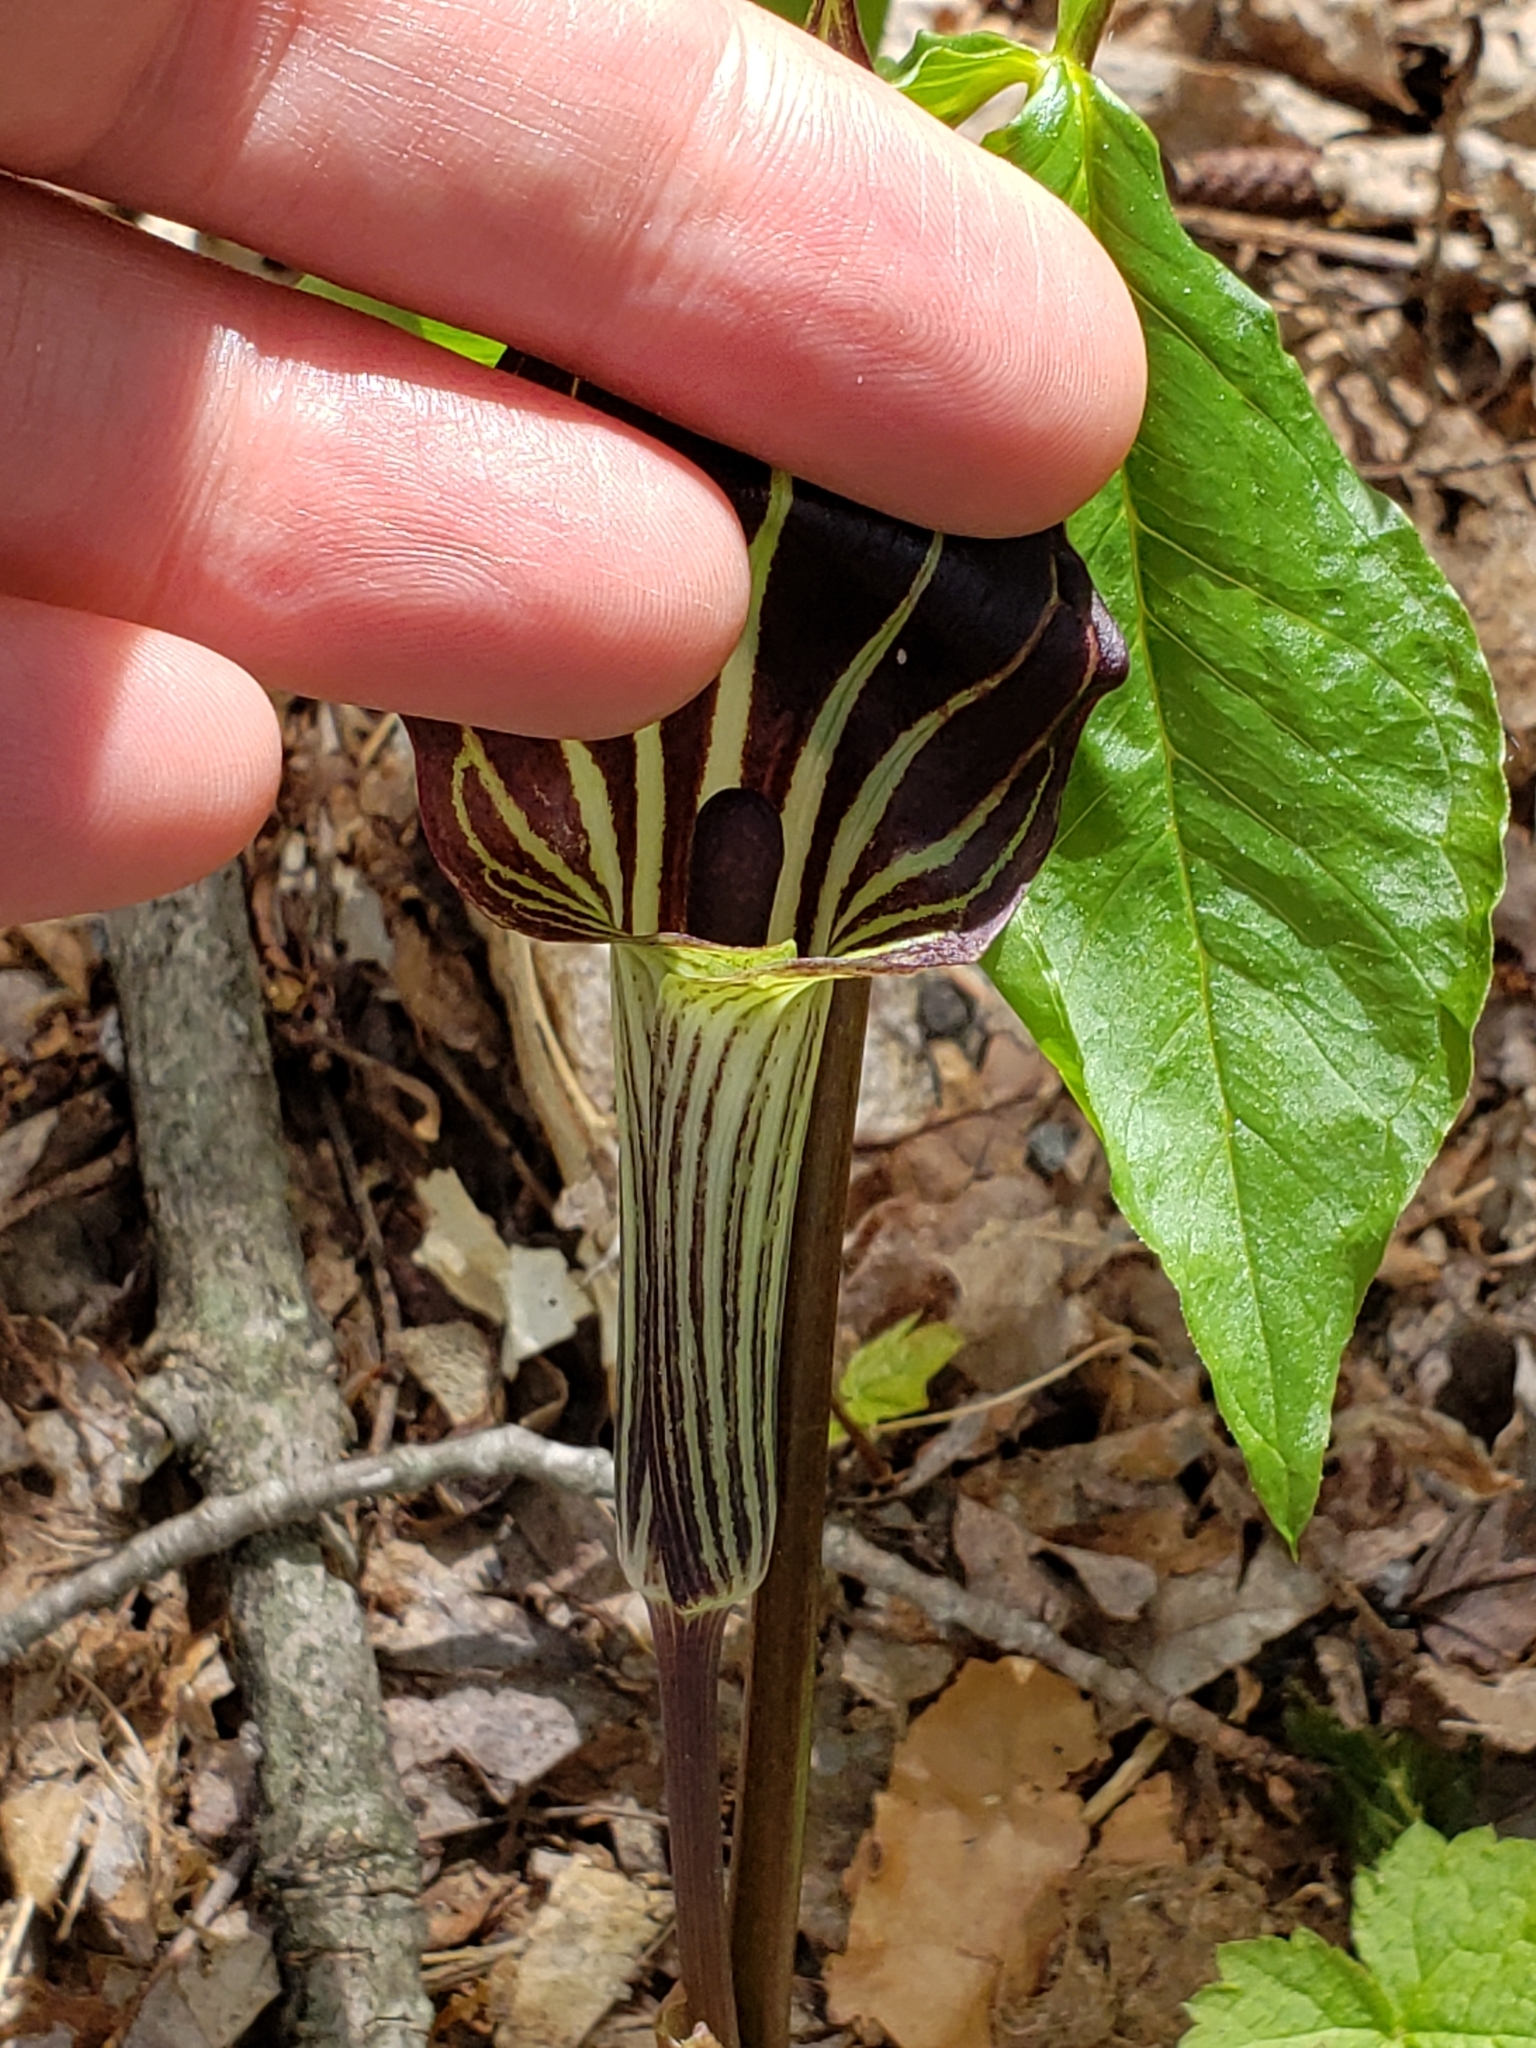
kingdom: Plantae
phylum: Tracheophyta
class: Liliopsida
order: Alismatales
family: Araceae
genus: Arisaema
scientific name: Arisaema triphyllum
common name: Jack-in-the-pulpit
